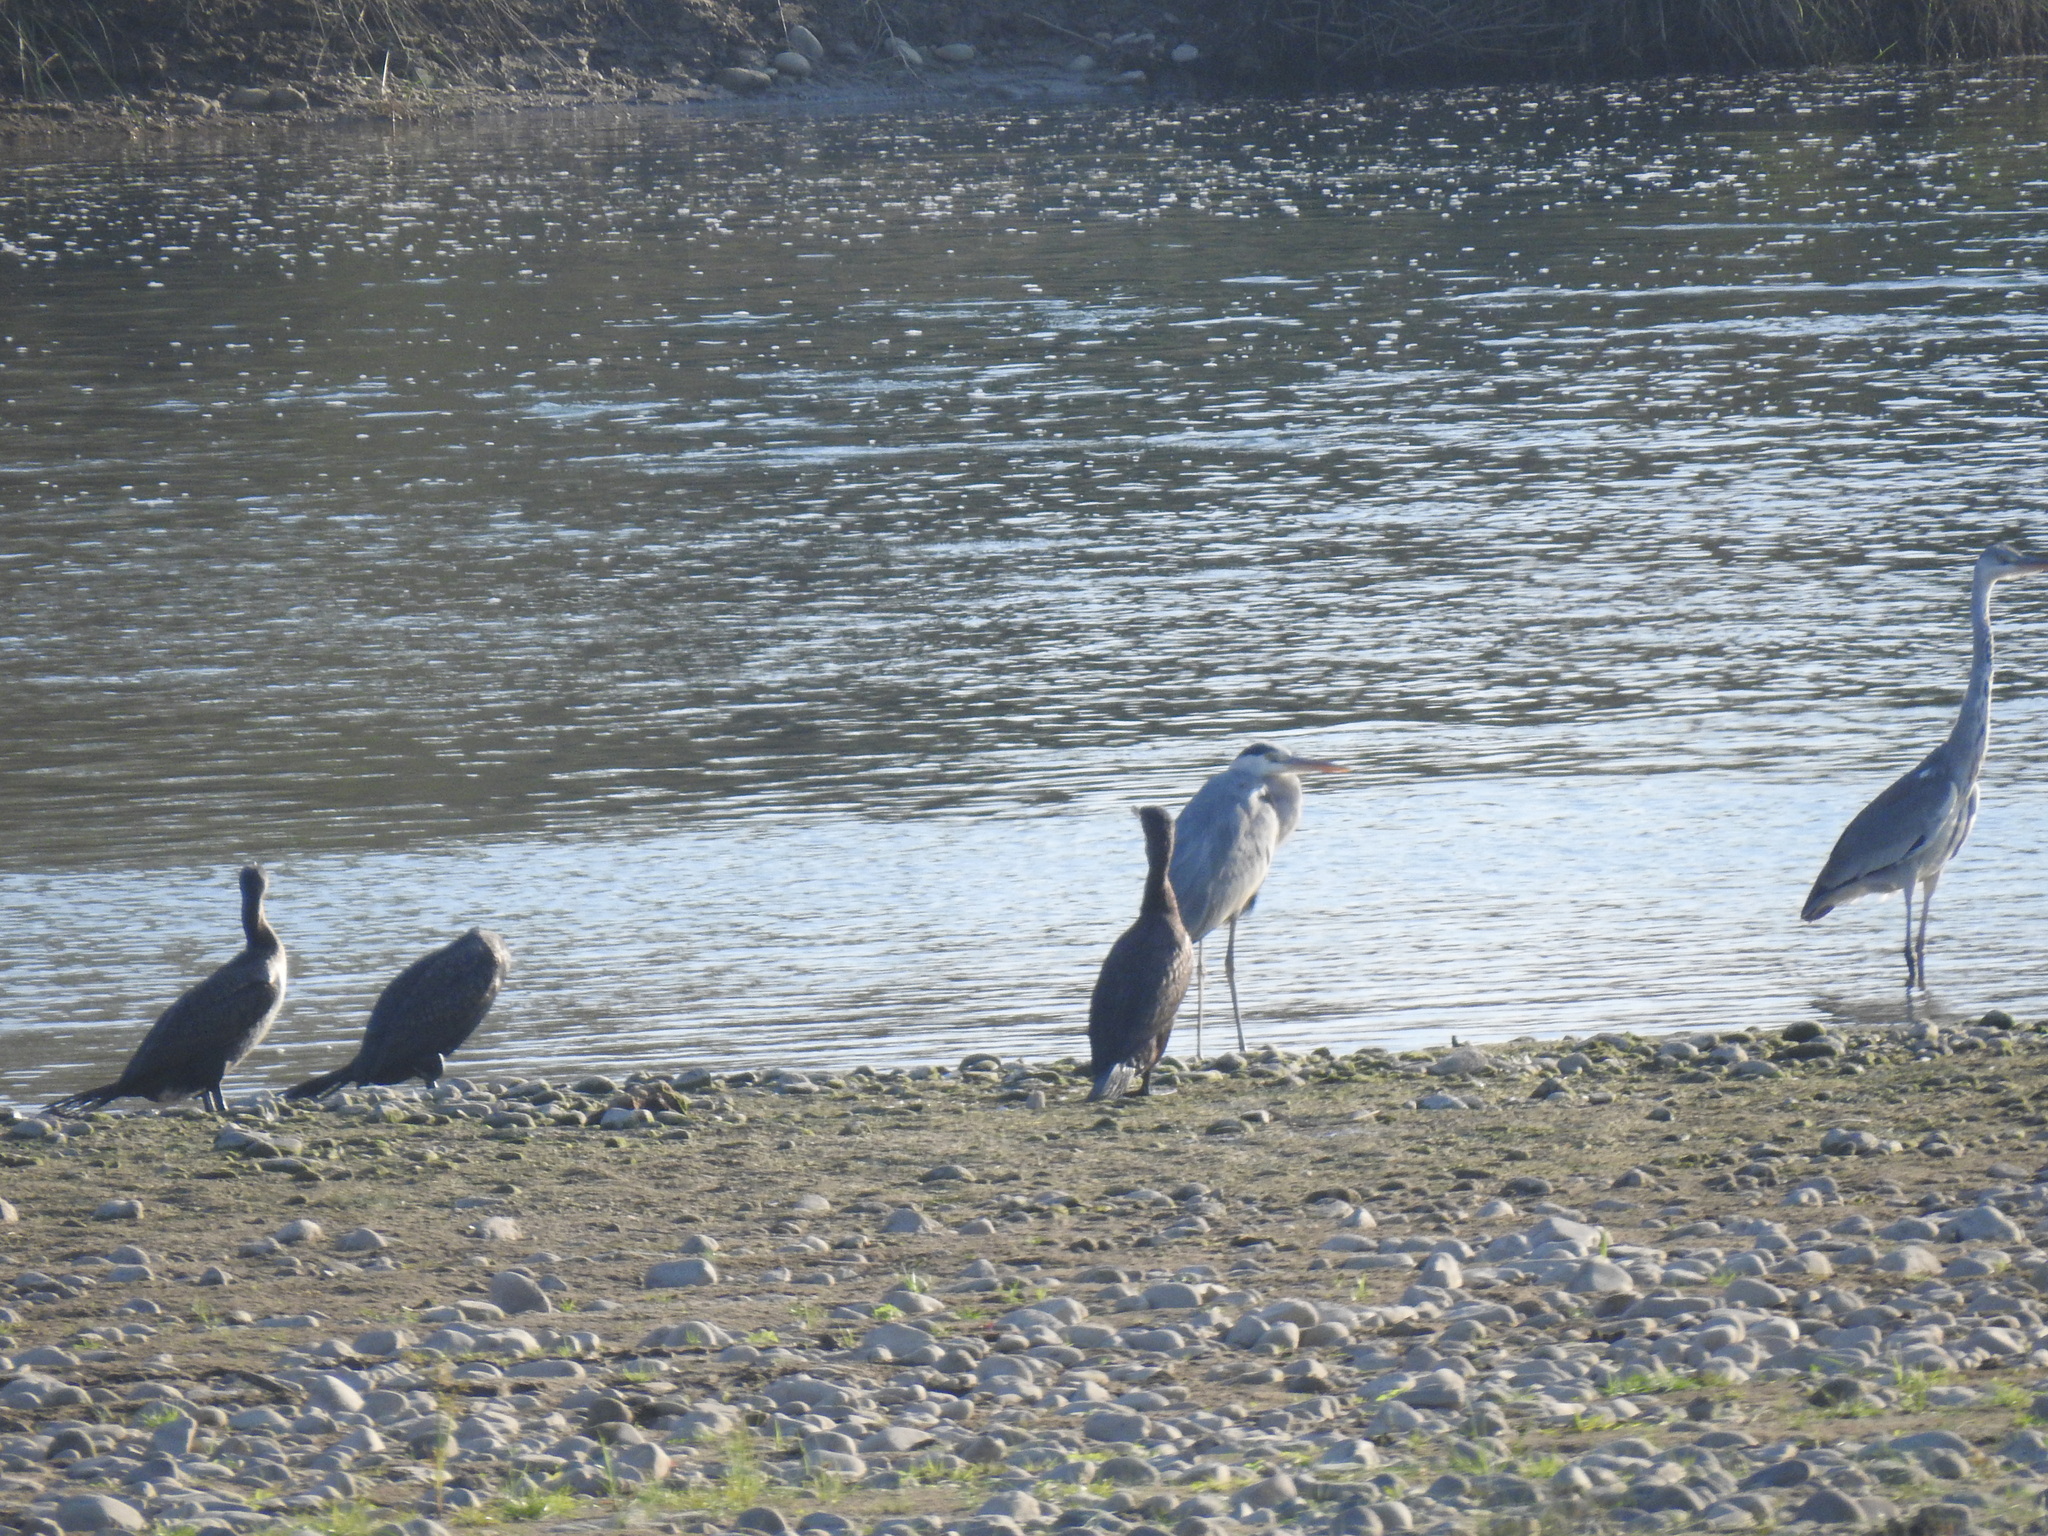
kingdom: Animalia
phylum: Chordata
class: Aves
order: Pelecaniformes
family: Ardeidae
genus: Ardea
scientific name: Ardea cinerea
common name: Grey heron
